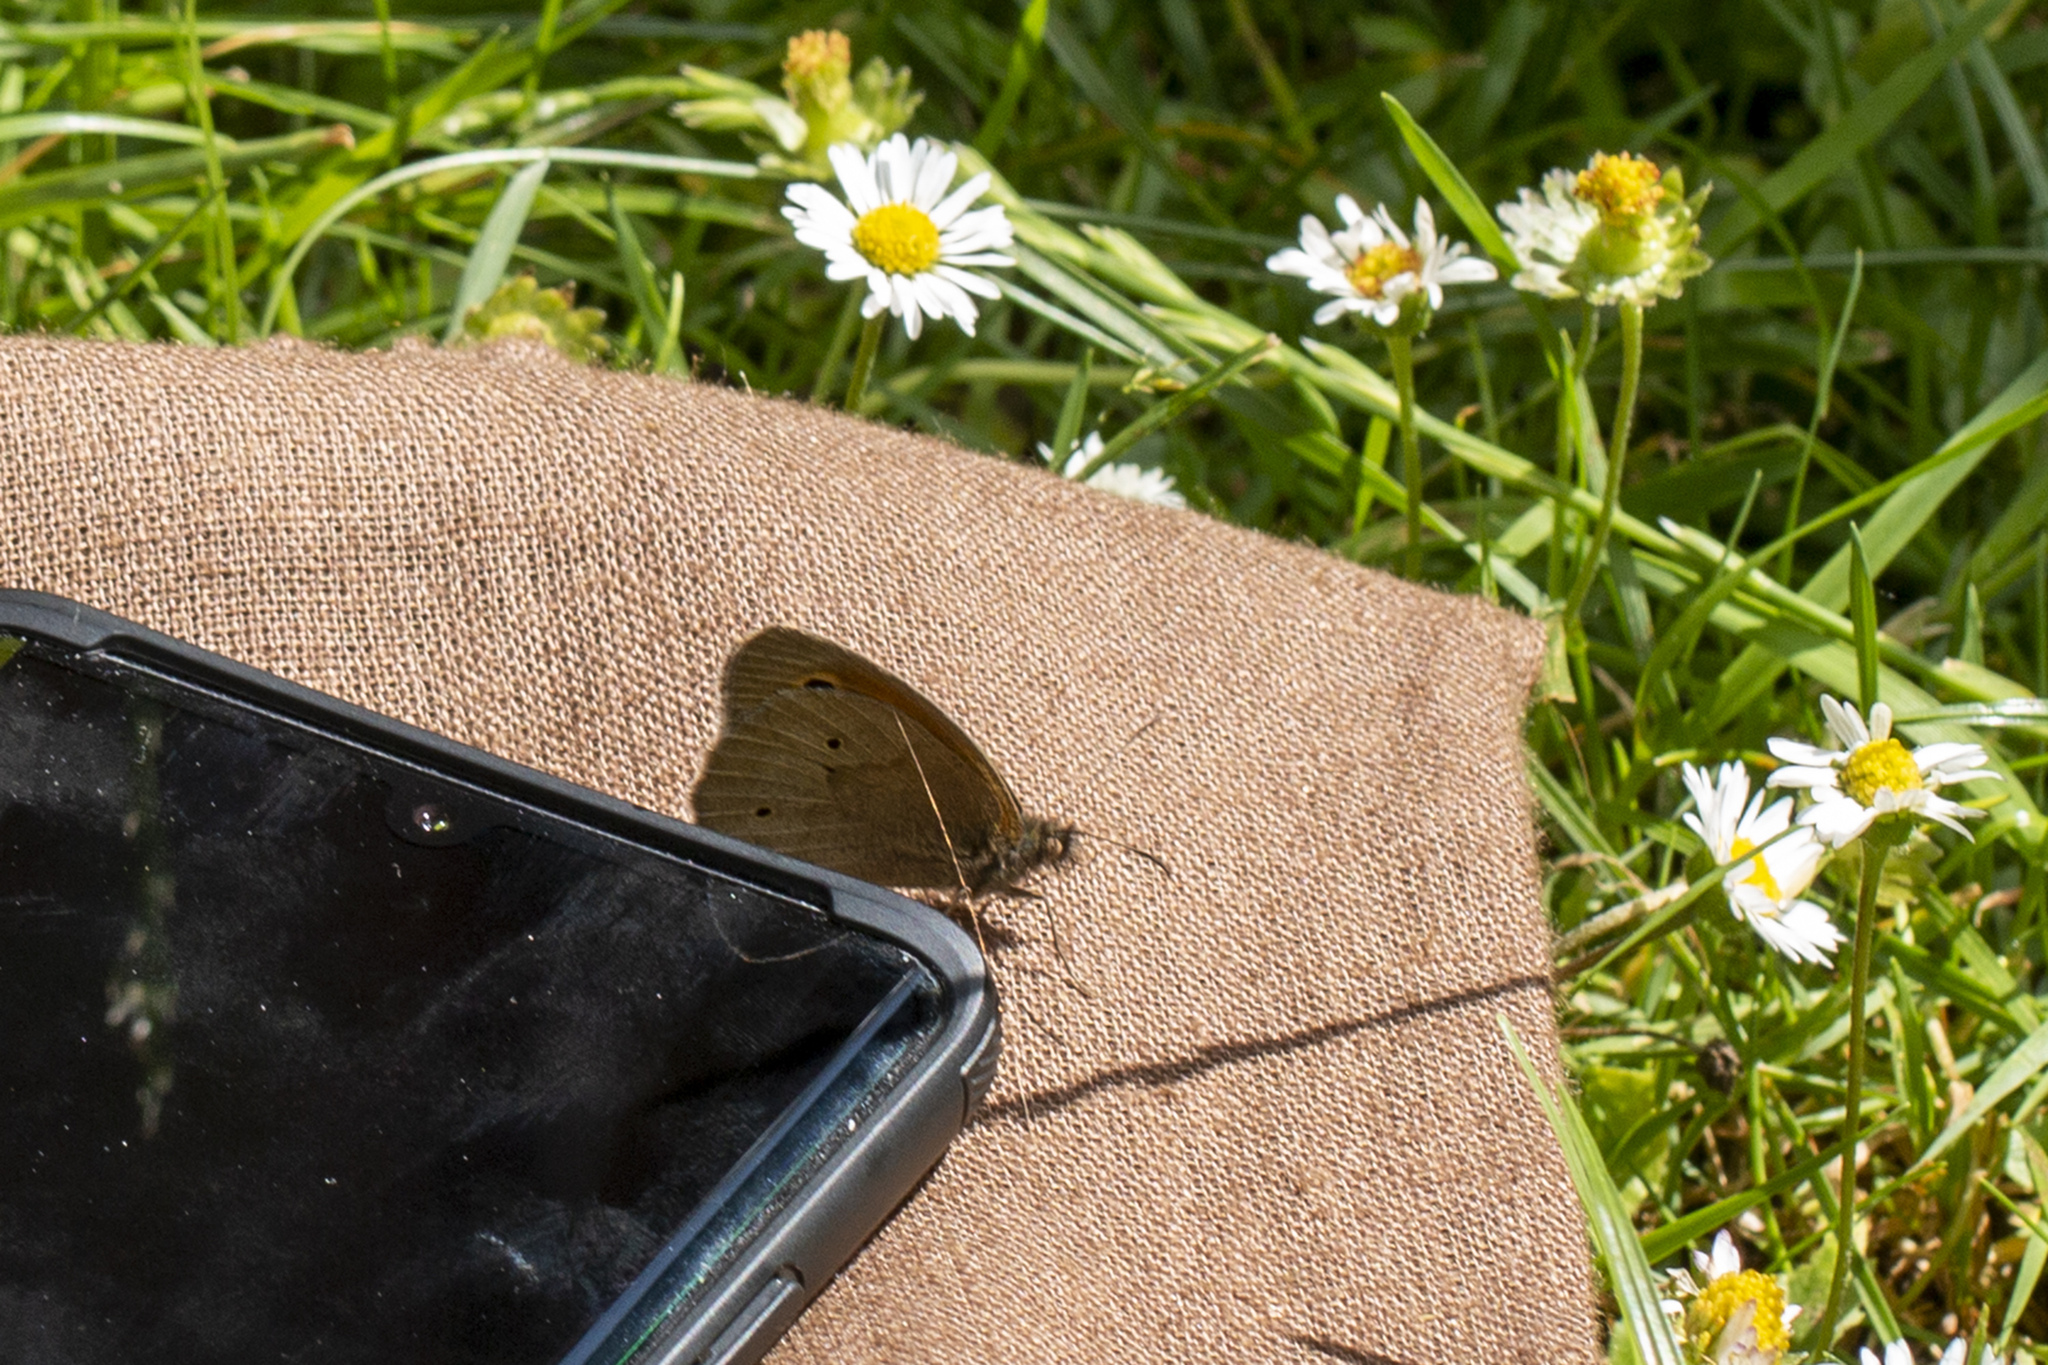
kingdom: Animalia
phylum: Arthropoda
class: Insecta
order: Lepidoptera
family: Nymphalidae
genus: Maniola
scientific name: Maniola jurtina
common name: Meadow brown
